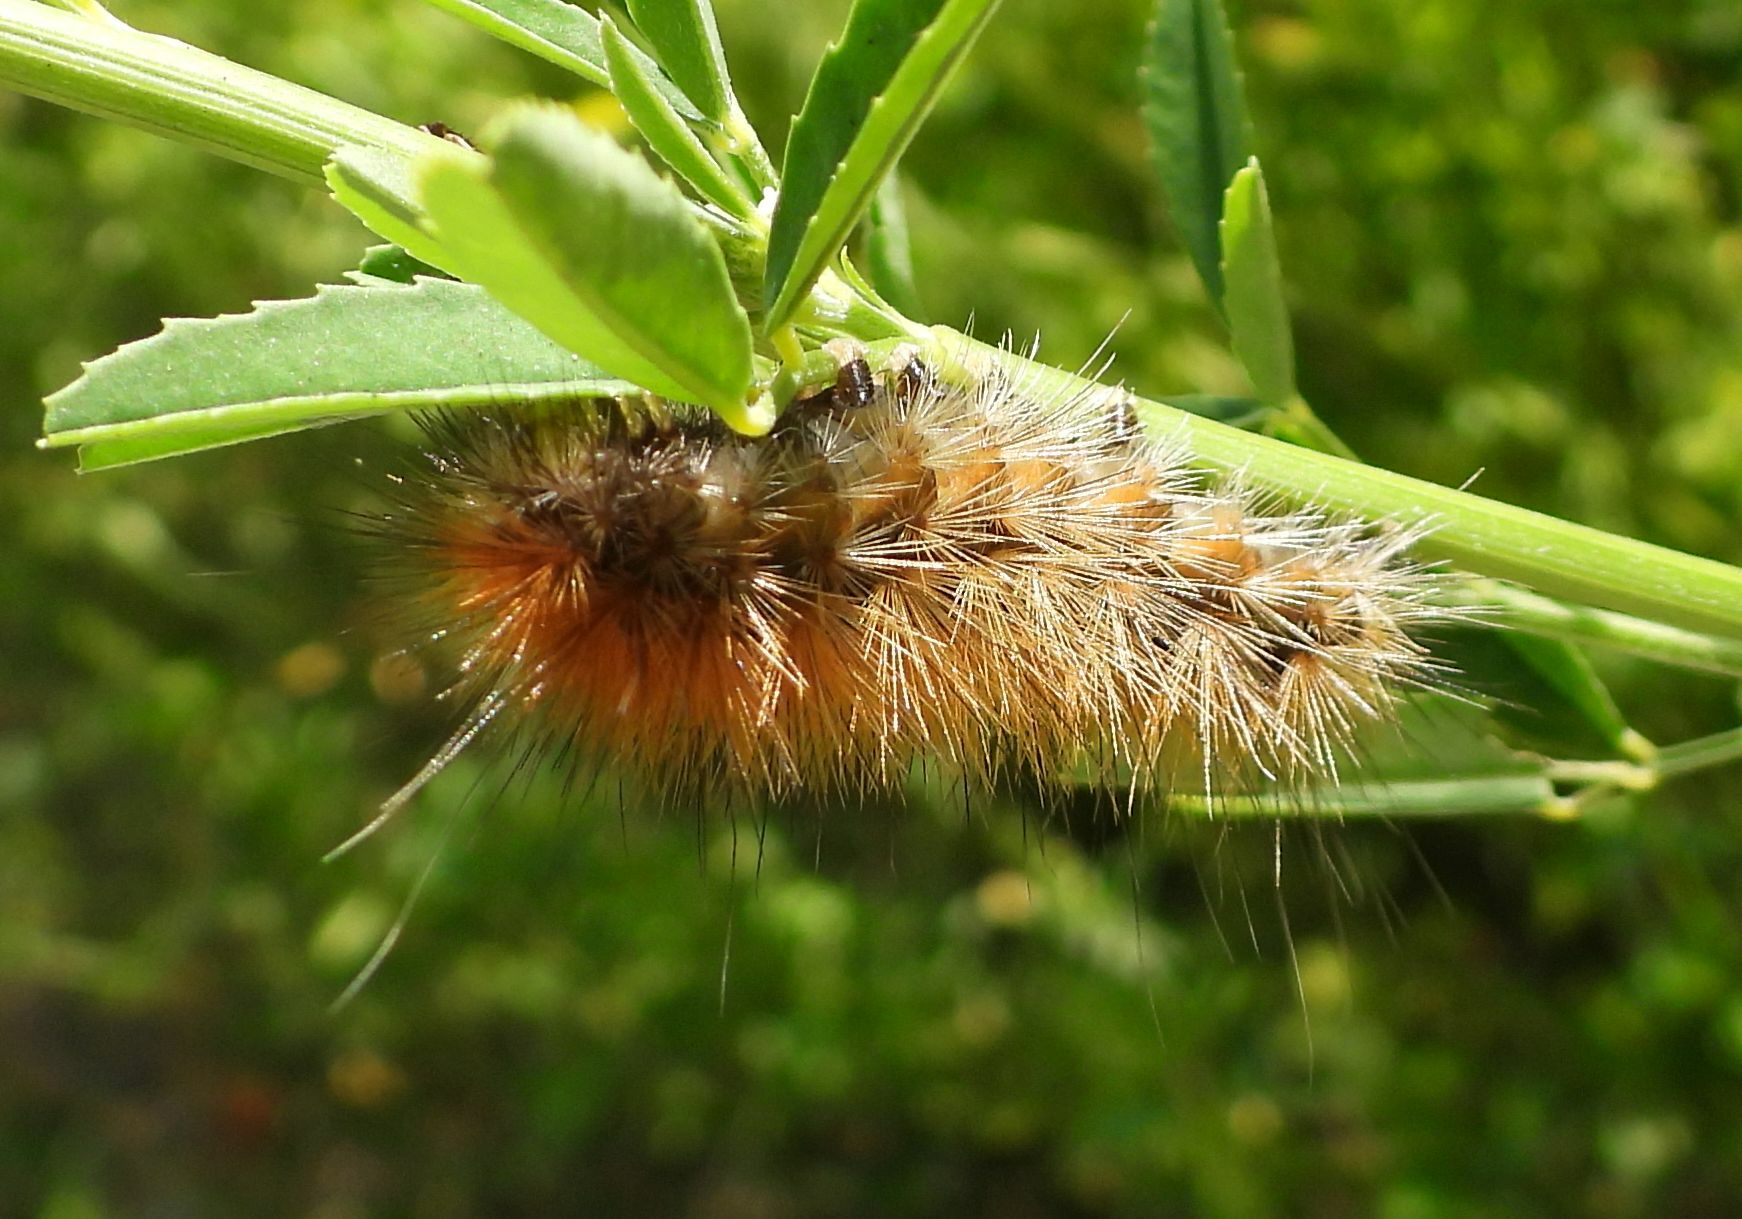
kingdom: Animalia
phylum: Arthropoda
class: Insecta
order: Lepidoptera
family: Erebidae
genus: Spilosoma
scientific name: Spilosoma virginica
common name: Virginia tiger moth
